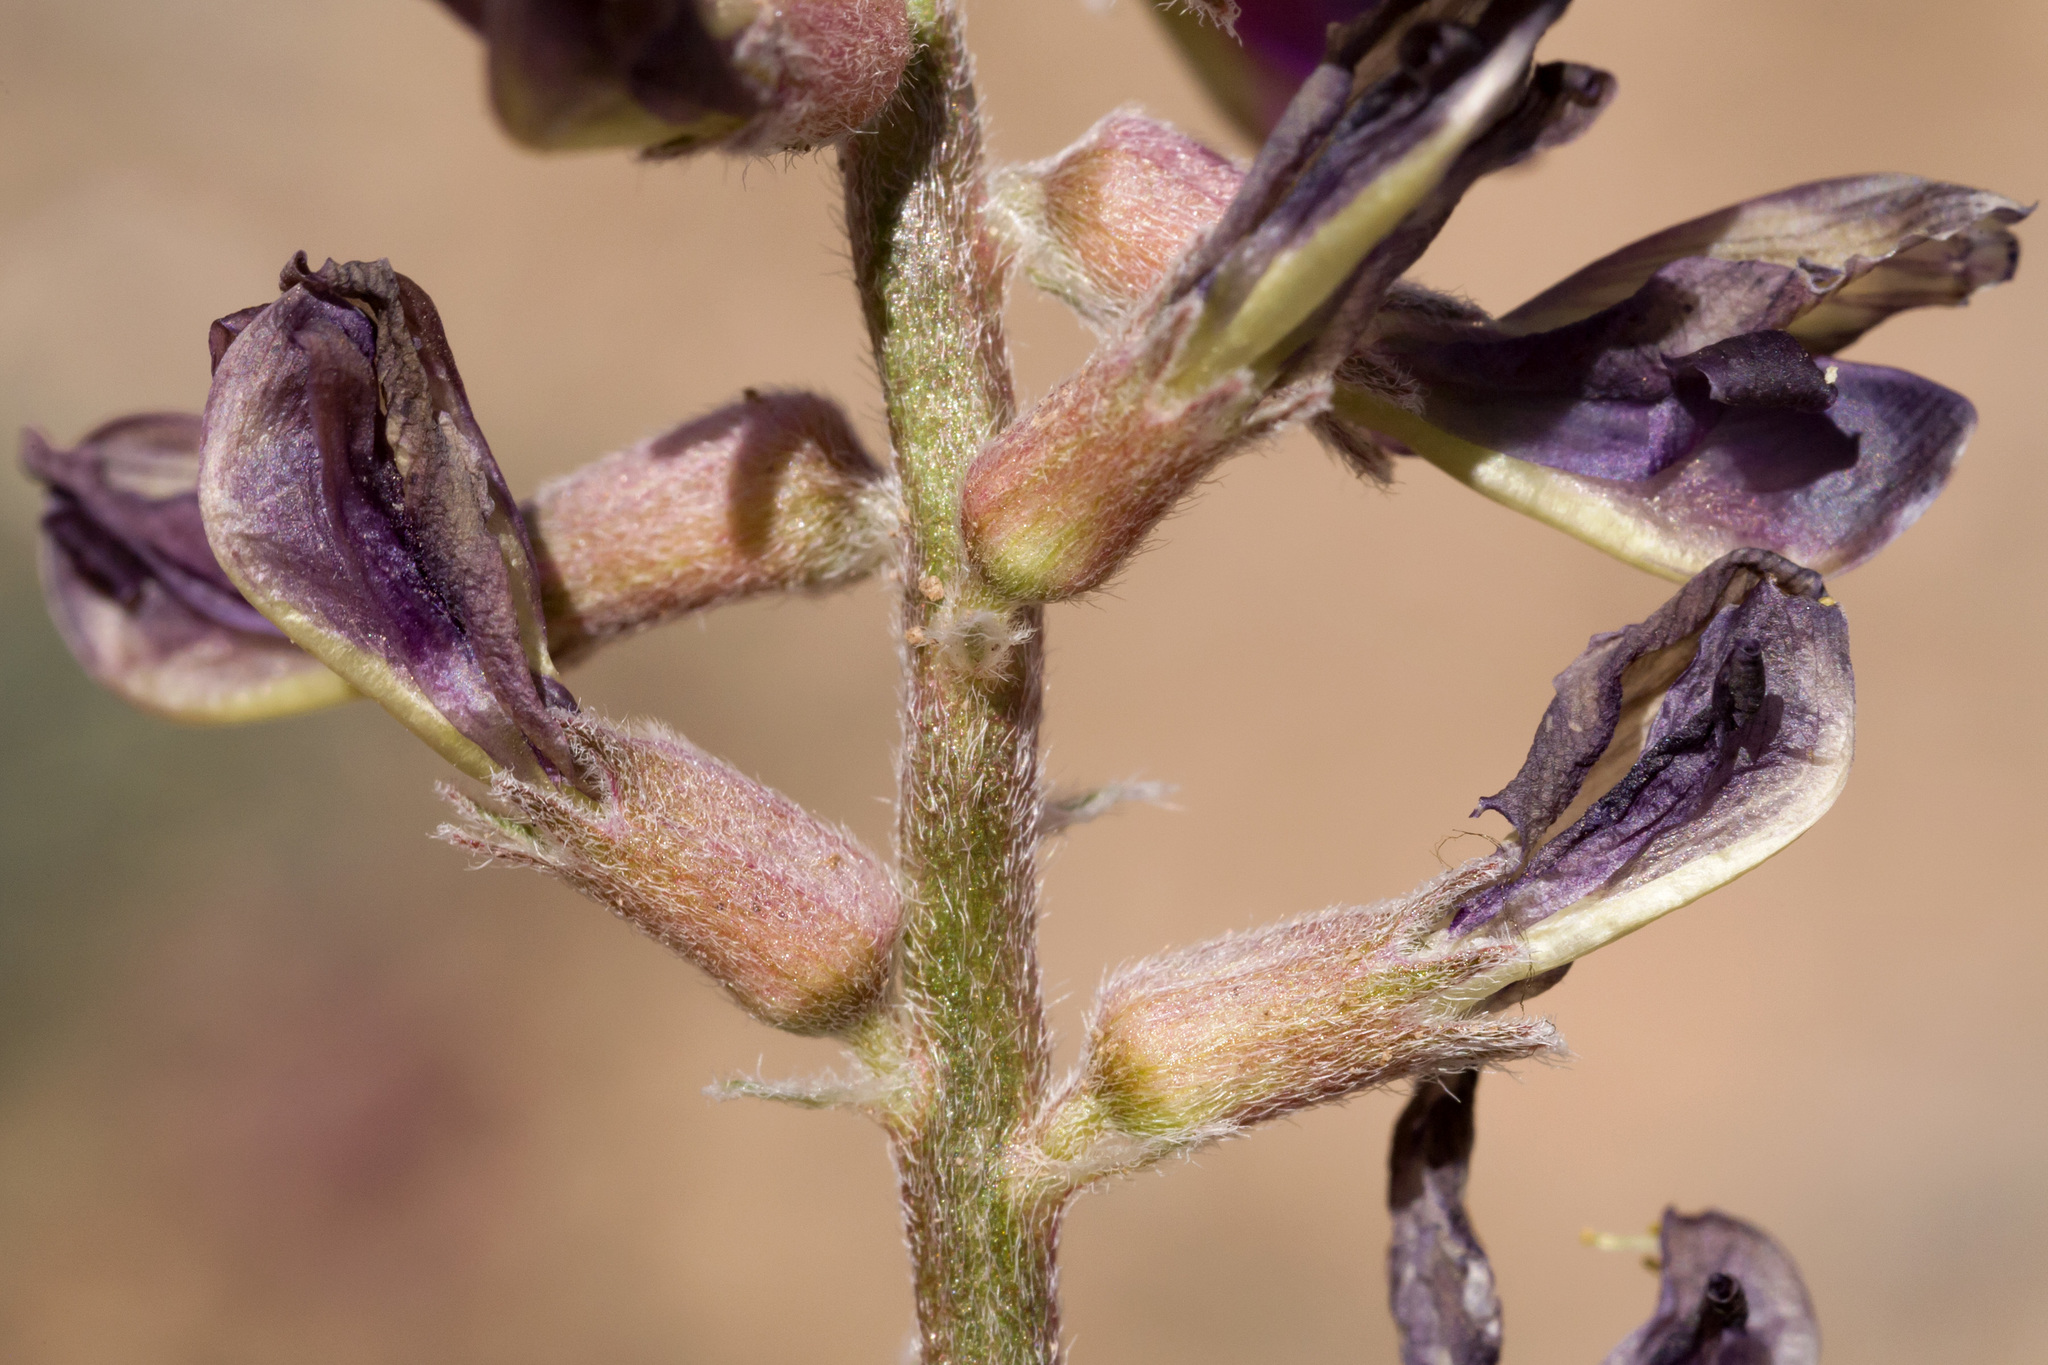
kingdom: Plantae
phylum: Tracheophyta
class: Magnoliopsida
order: Fabales
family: Fabaceae
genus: Astragalus
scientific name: Astragalus tephrodes
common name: Ashen milk-vetch
